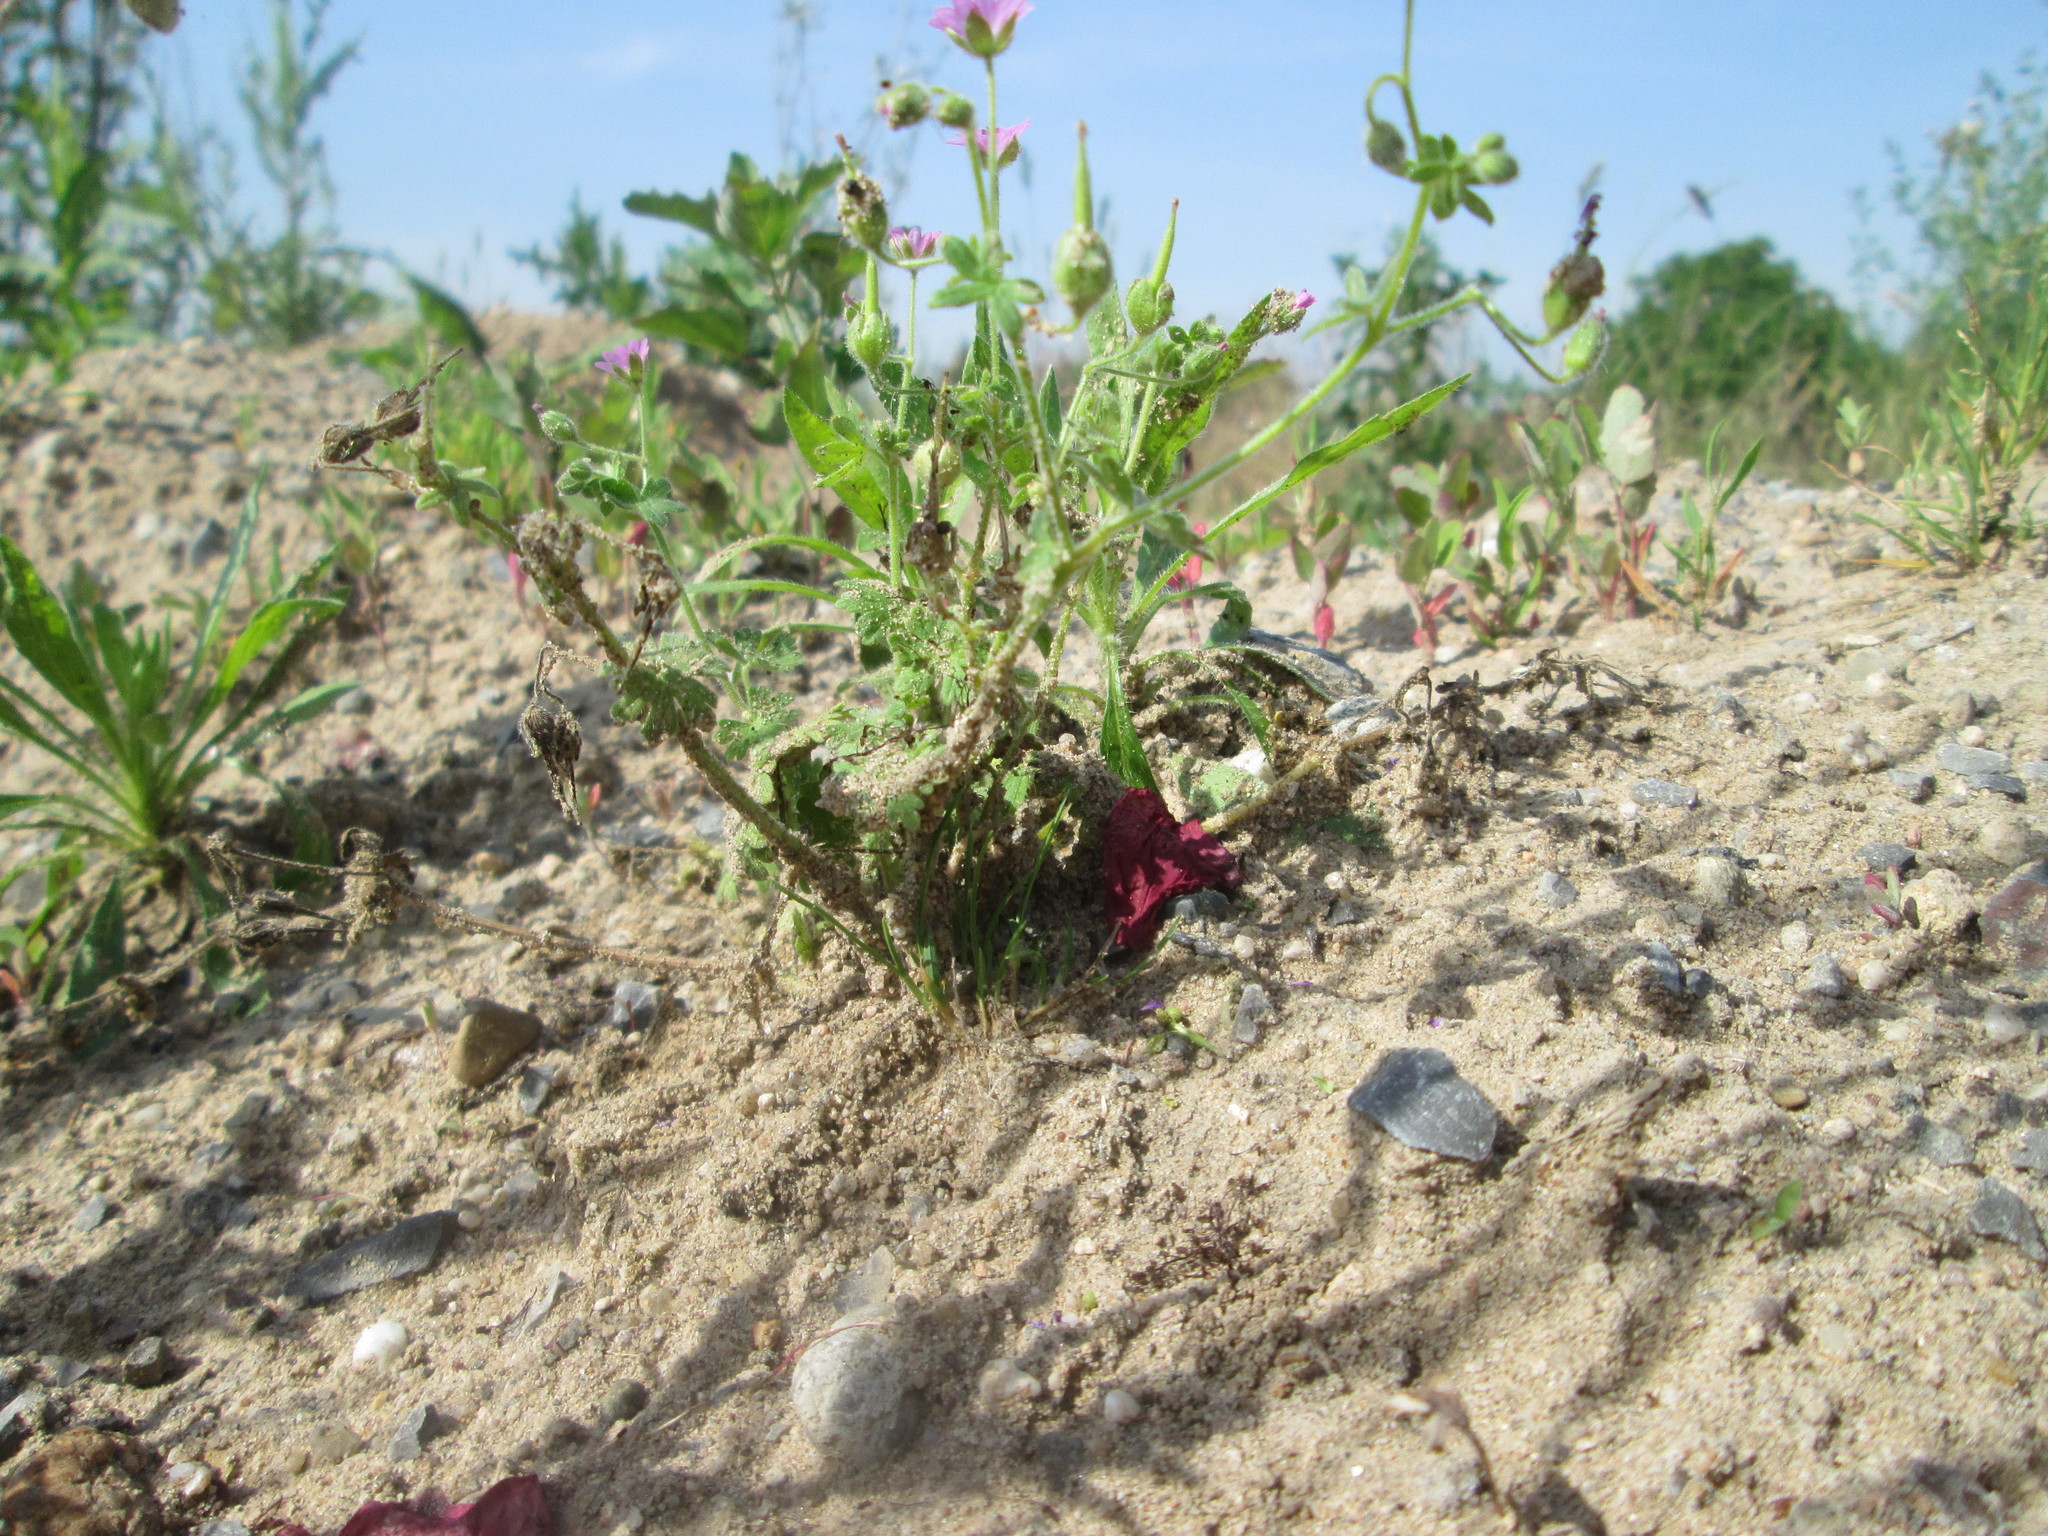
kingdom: Plantae
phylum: Tracheophyta
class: Magnoliopsida
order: Geraniales
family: Geraniaceae
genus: Geranium
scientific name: Geranium molle
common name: Dove's-foot crane's-bill
